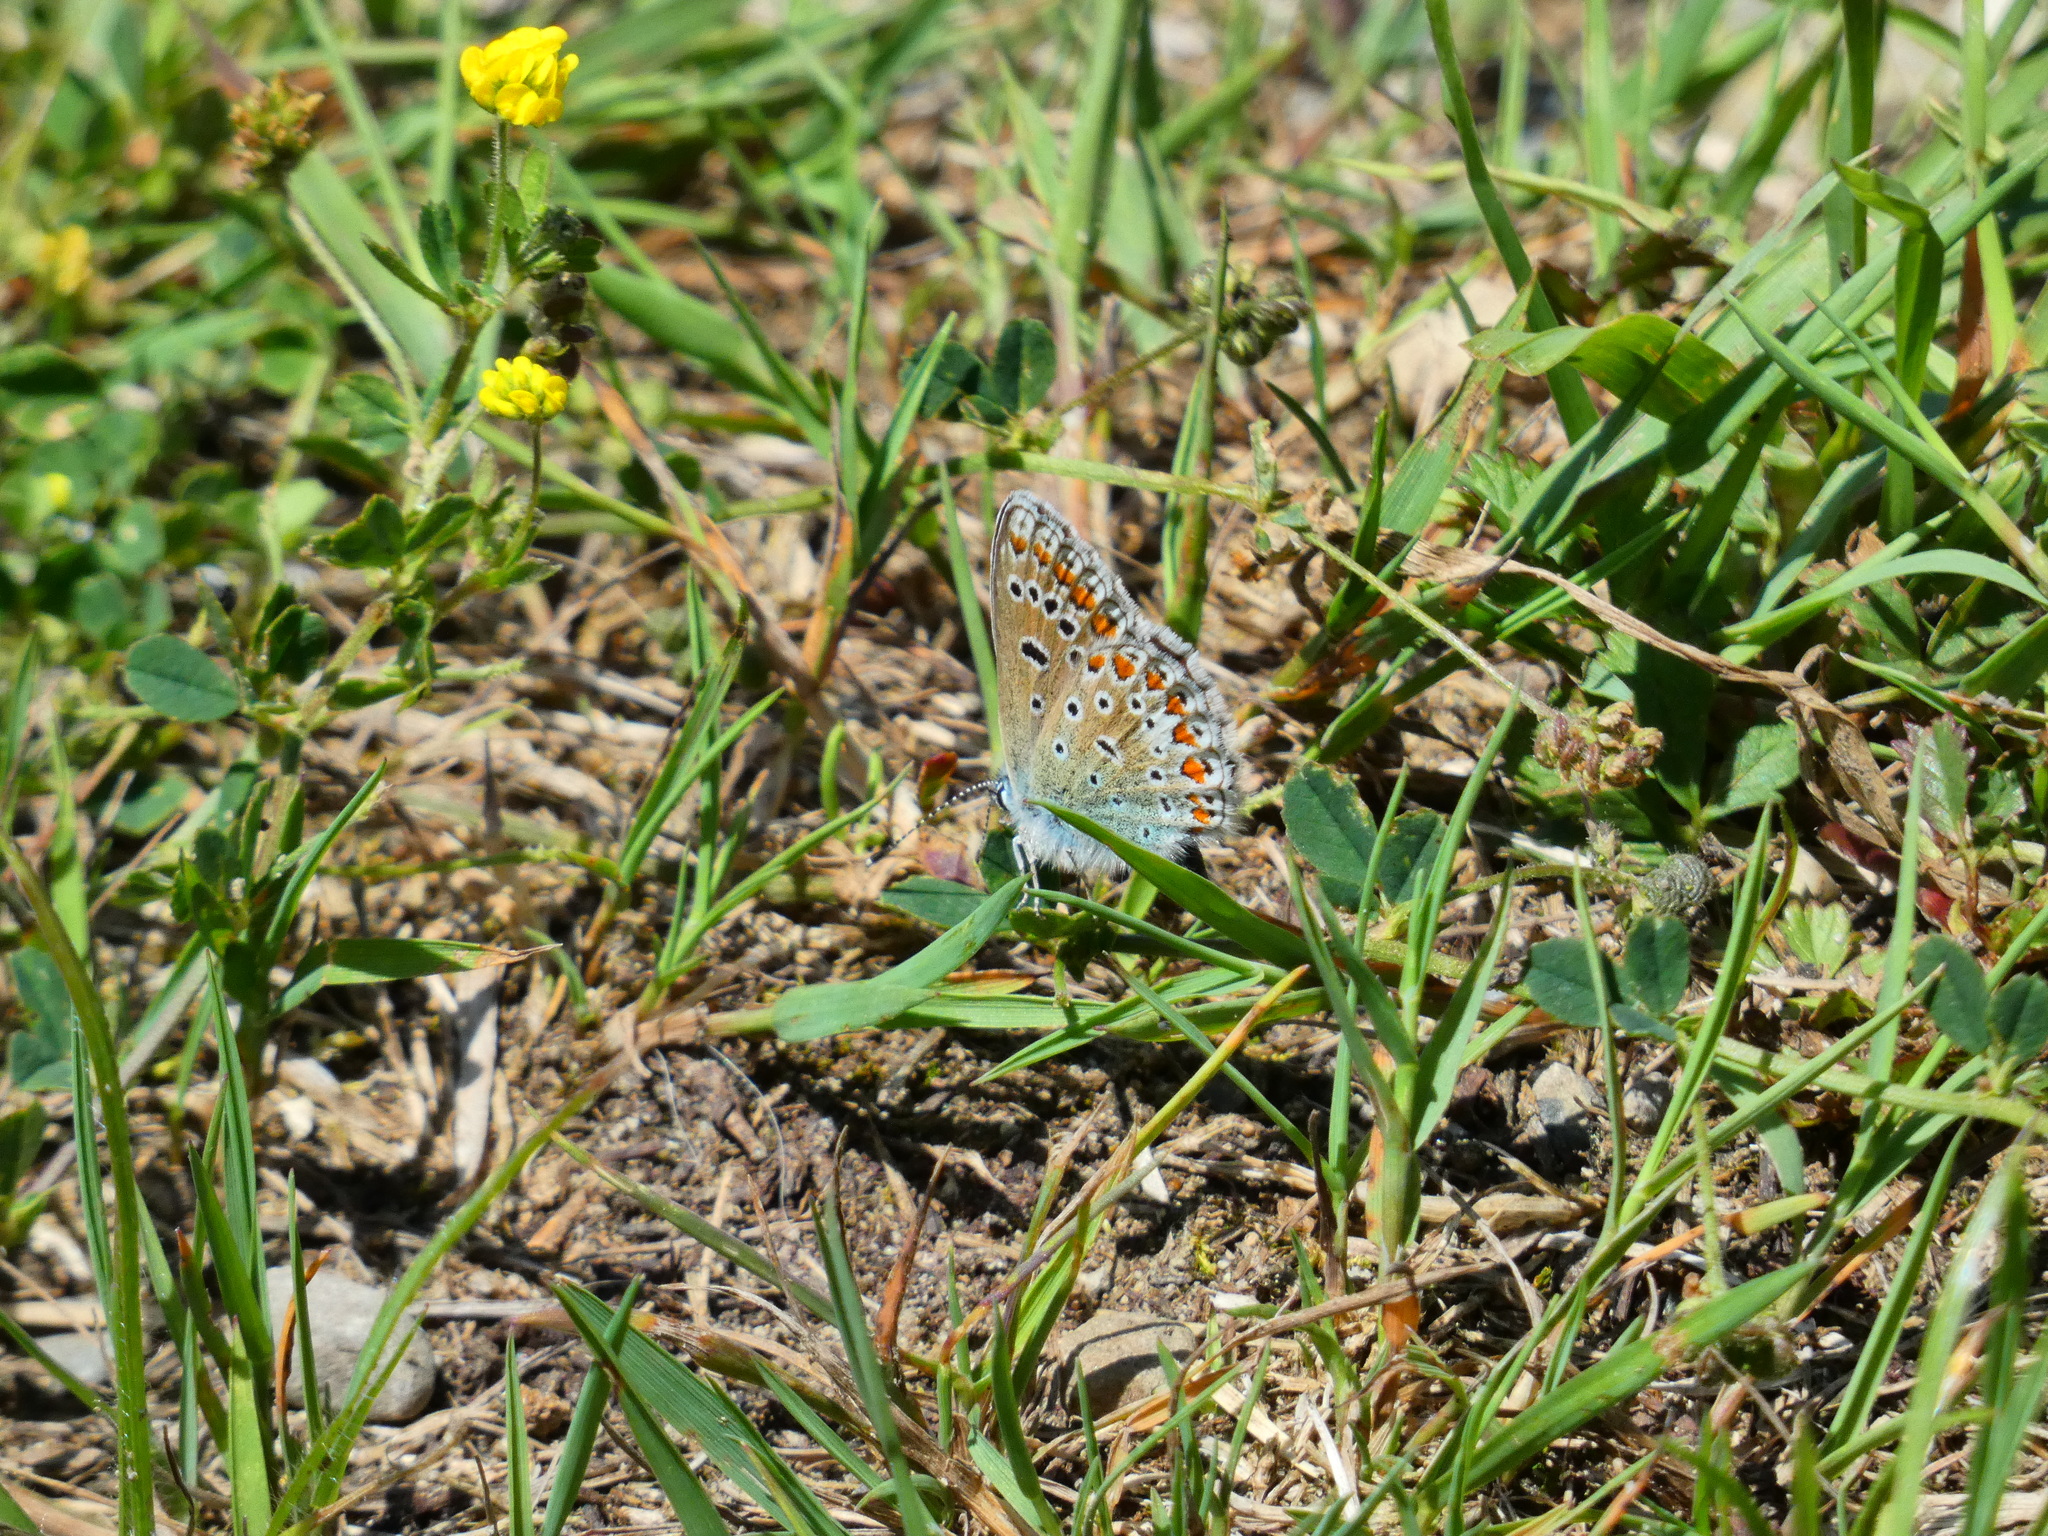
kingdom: Animalia
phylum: Arthropoda
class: Insecta
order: Lepidoptera
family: Lycaenidae
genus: Polyommatus
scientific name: Polyommatus icarus
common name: Common blue
